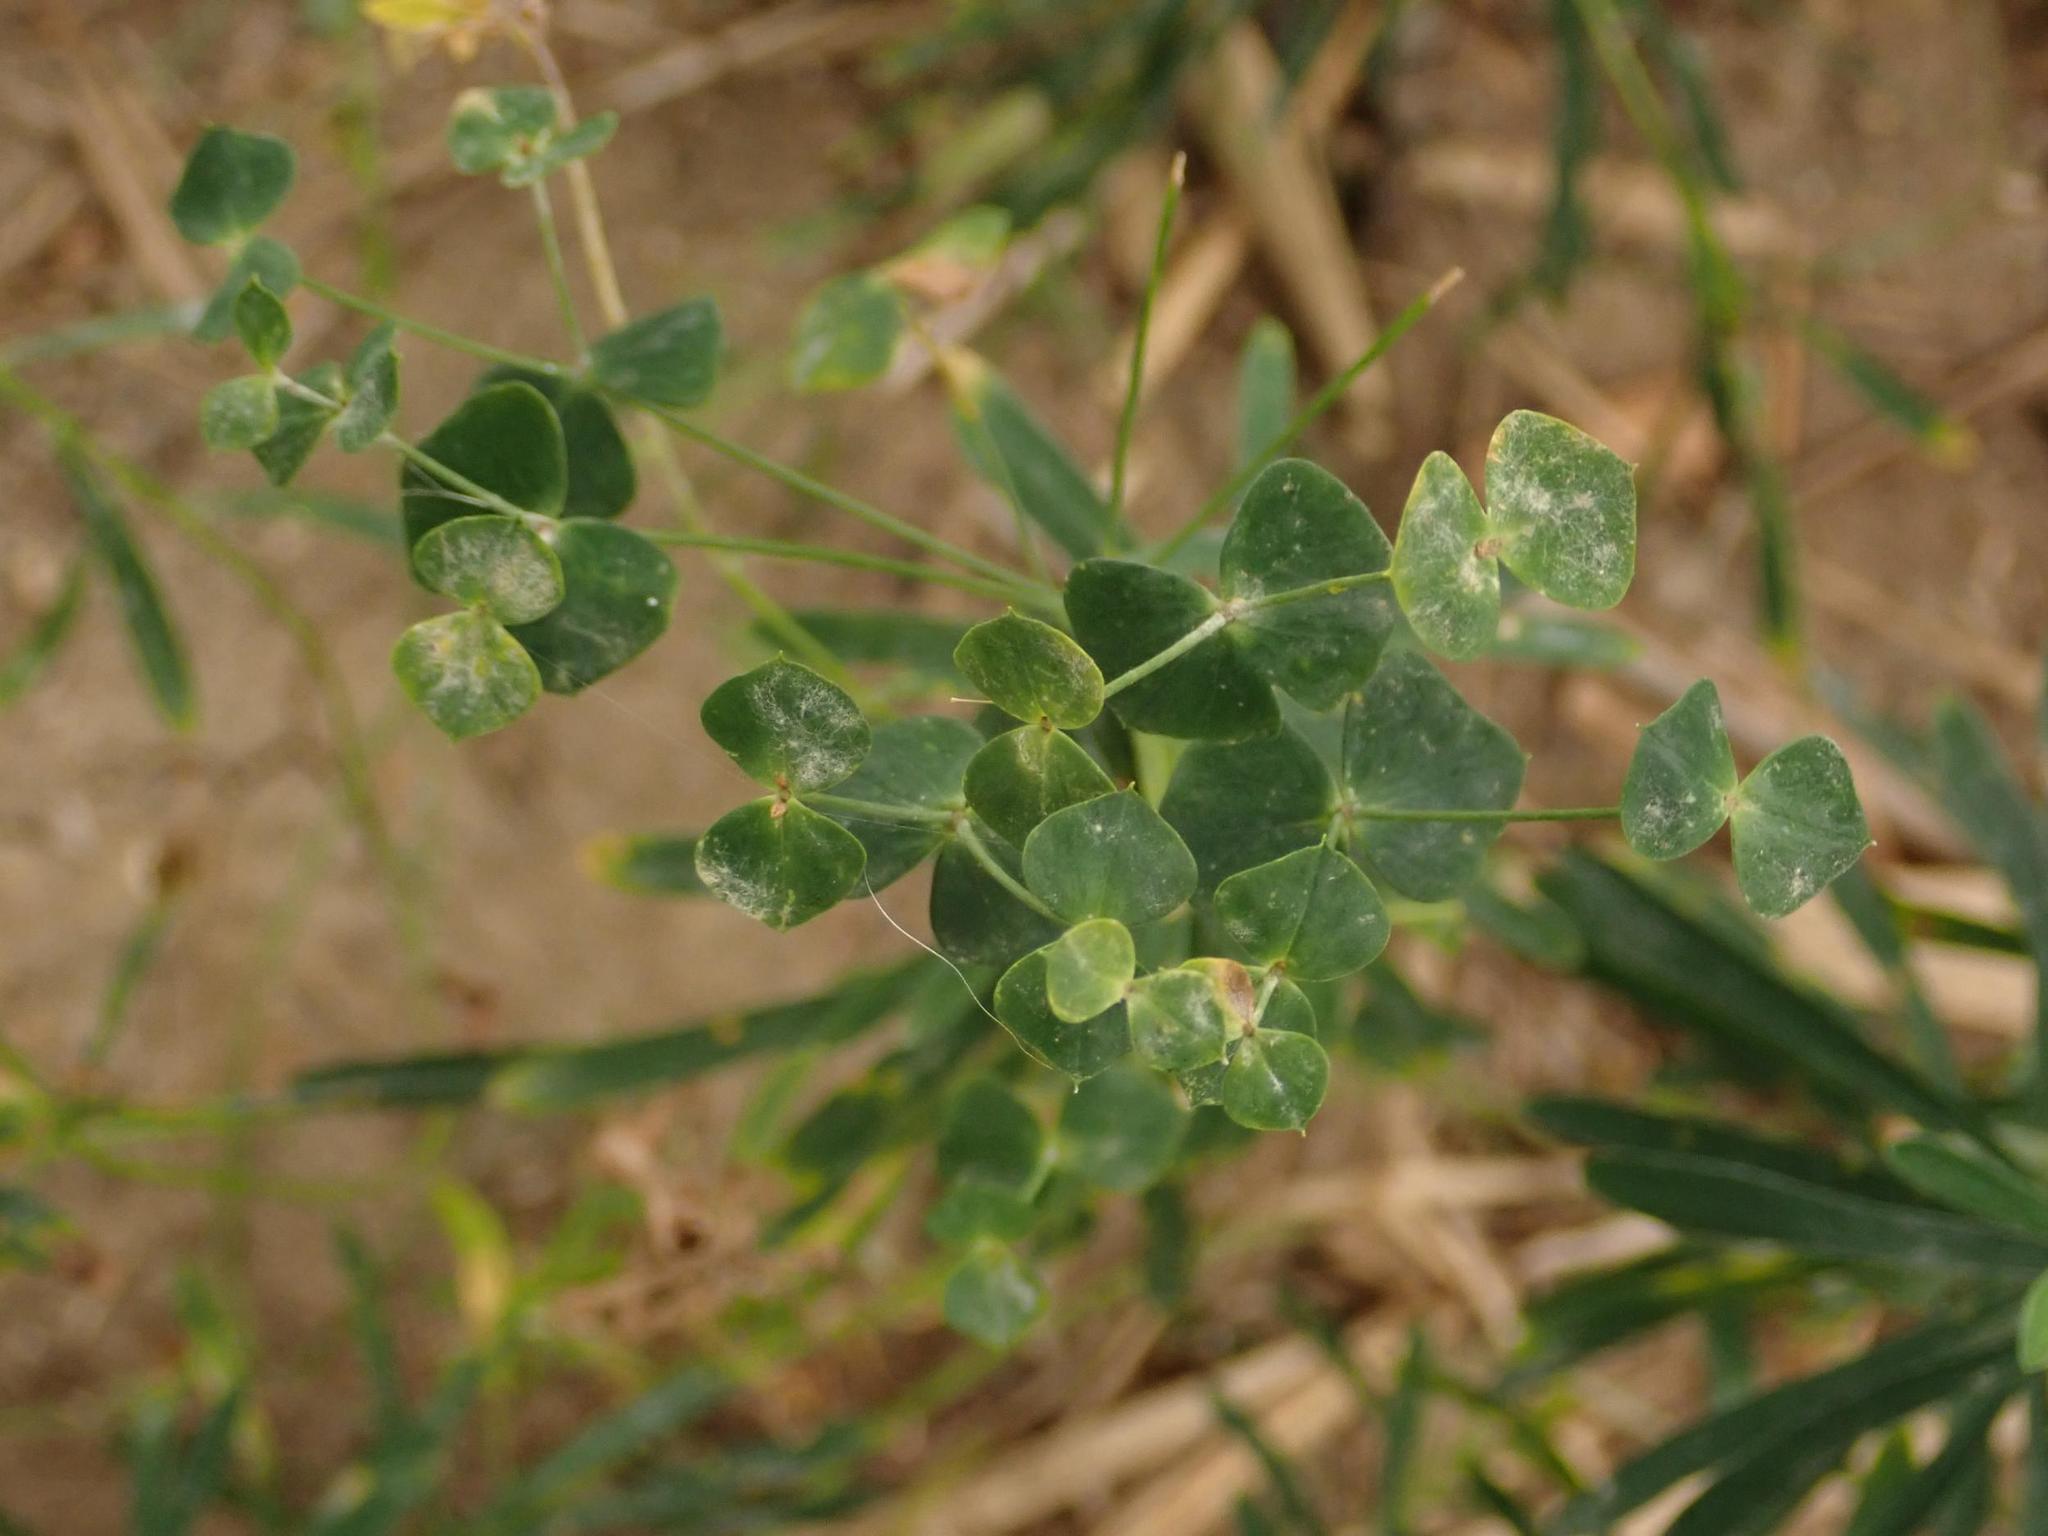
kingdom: Plantae
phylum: Tracheophyta
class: Magnoliopsida
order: Malpighiales
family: Euphorbiaceae
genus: Euphorbia
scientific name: Euphorbia esula
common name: Leafy spurge
